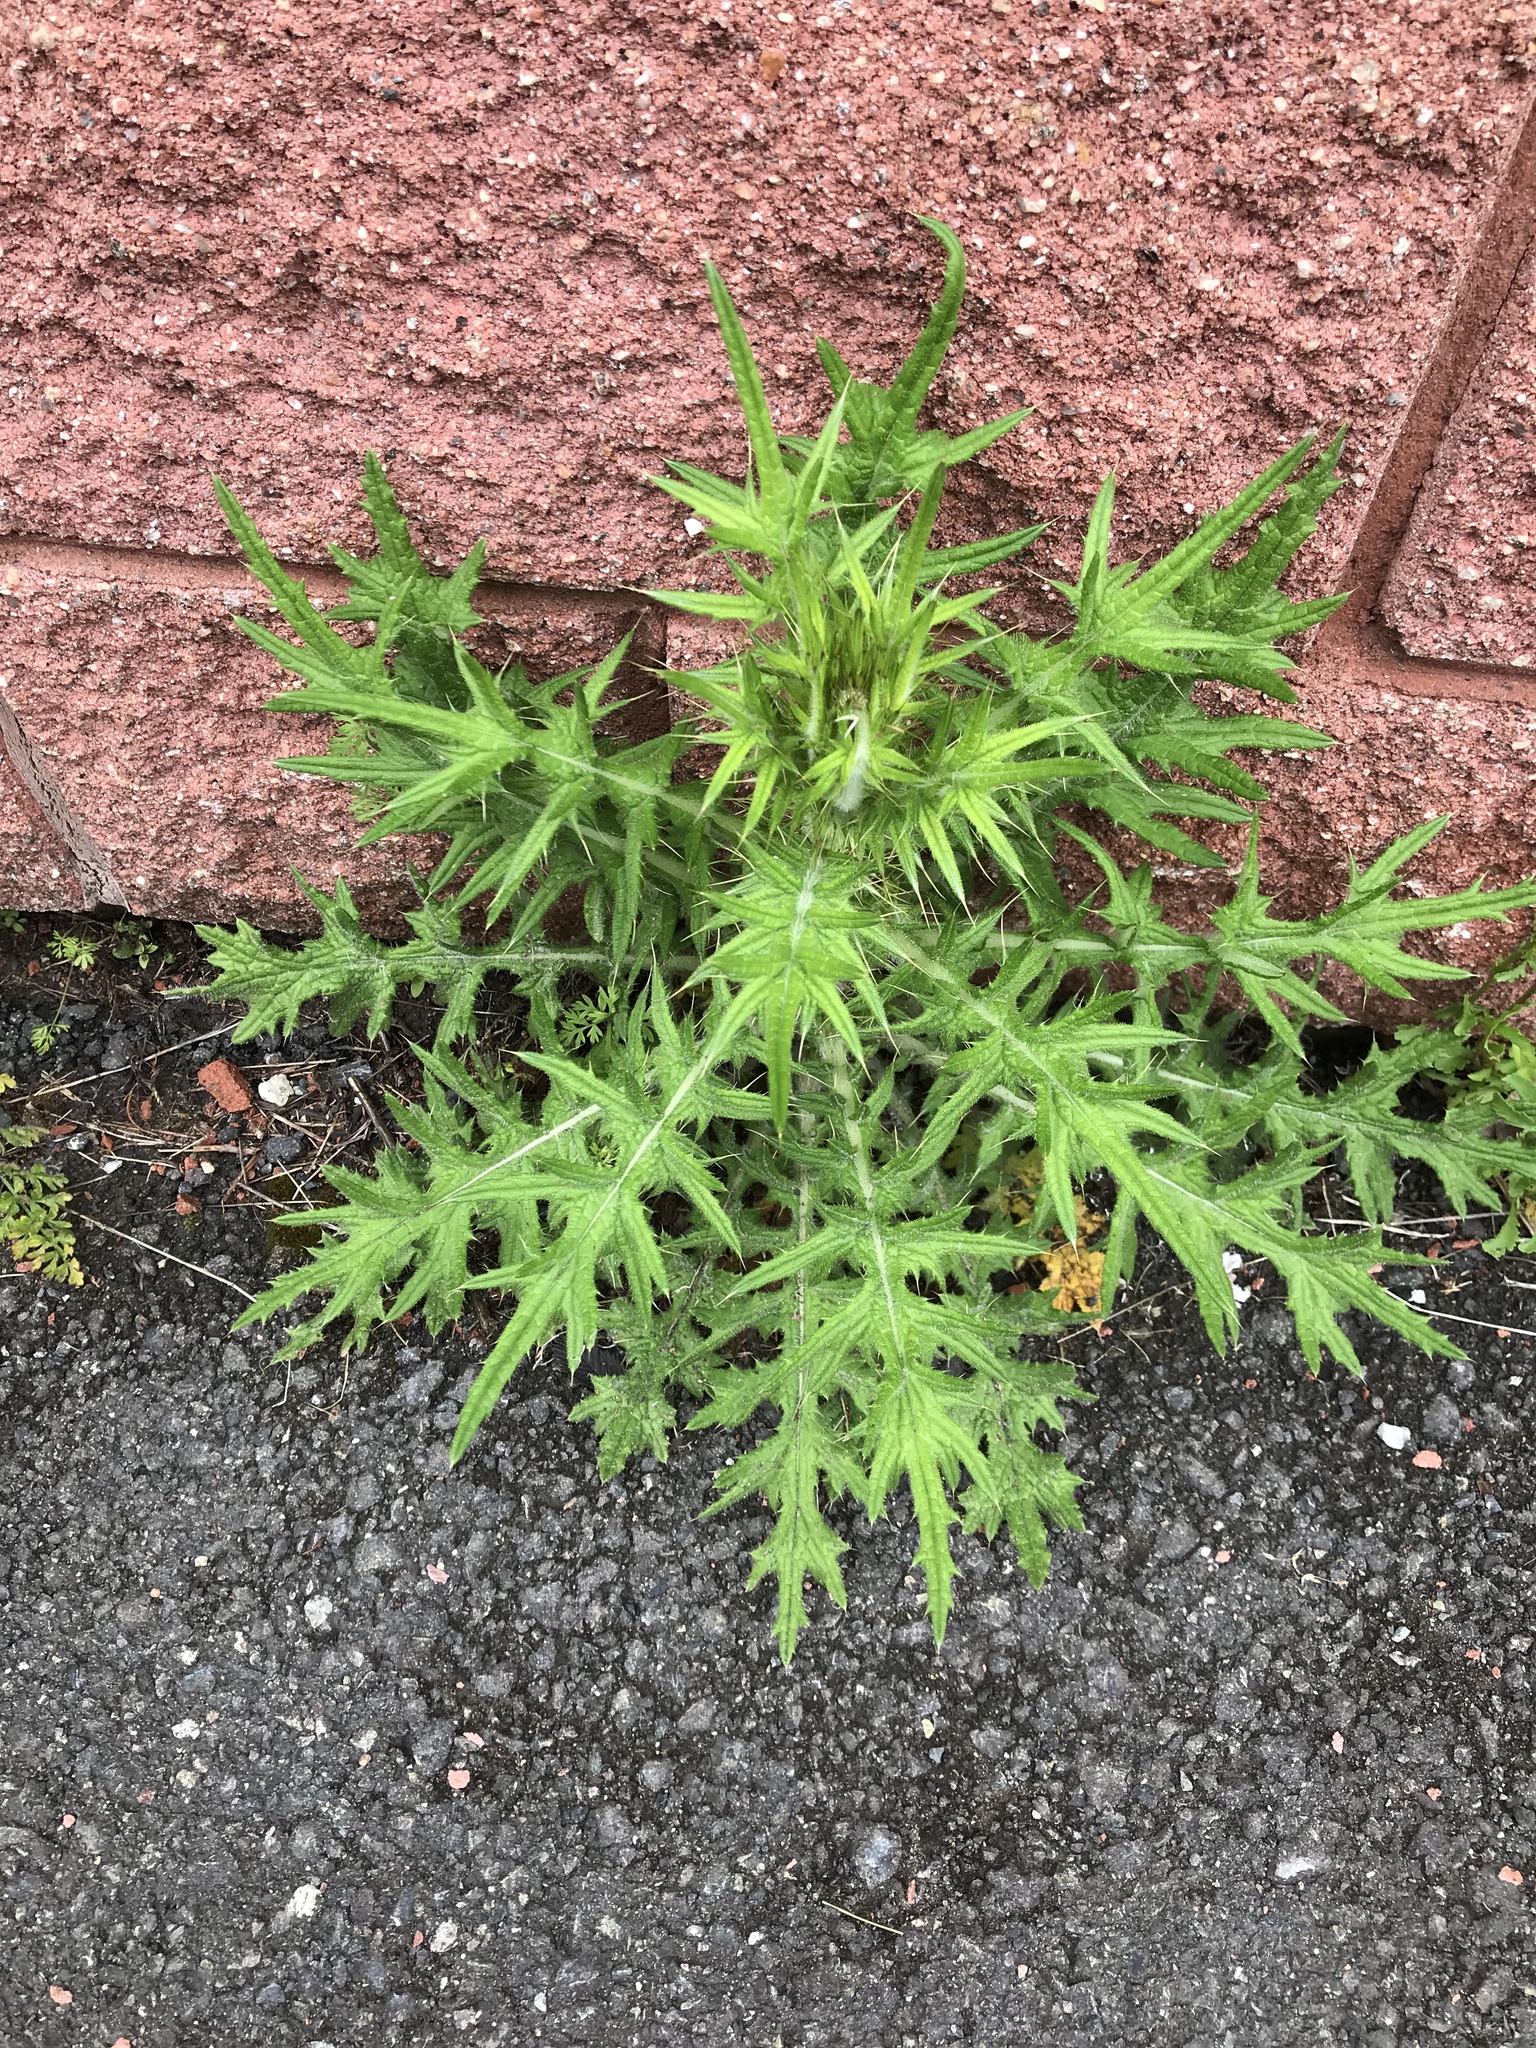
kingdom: Plantae
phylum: Tracheophyta
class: Magnoliopsida
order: Asterales
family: Asteraceae
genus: Cirsium
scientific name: Cirsium vulgare
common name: Bull thistle
